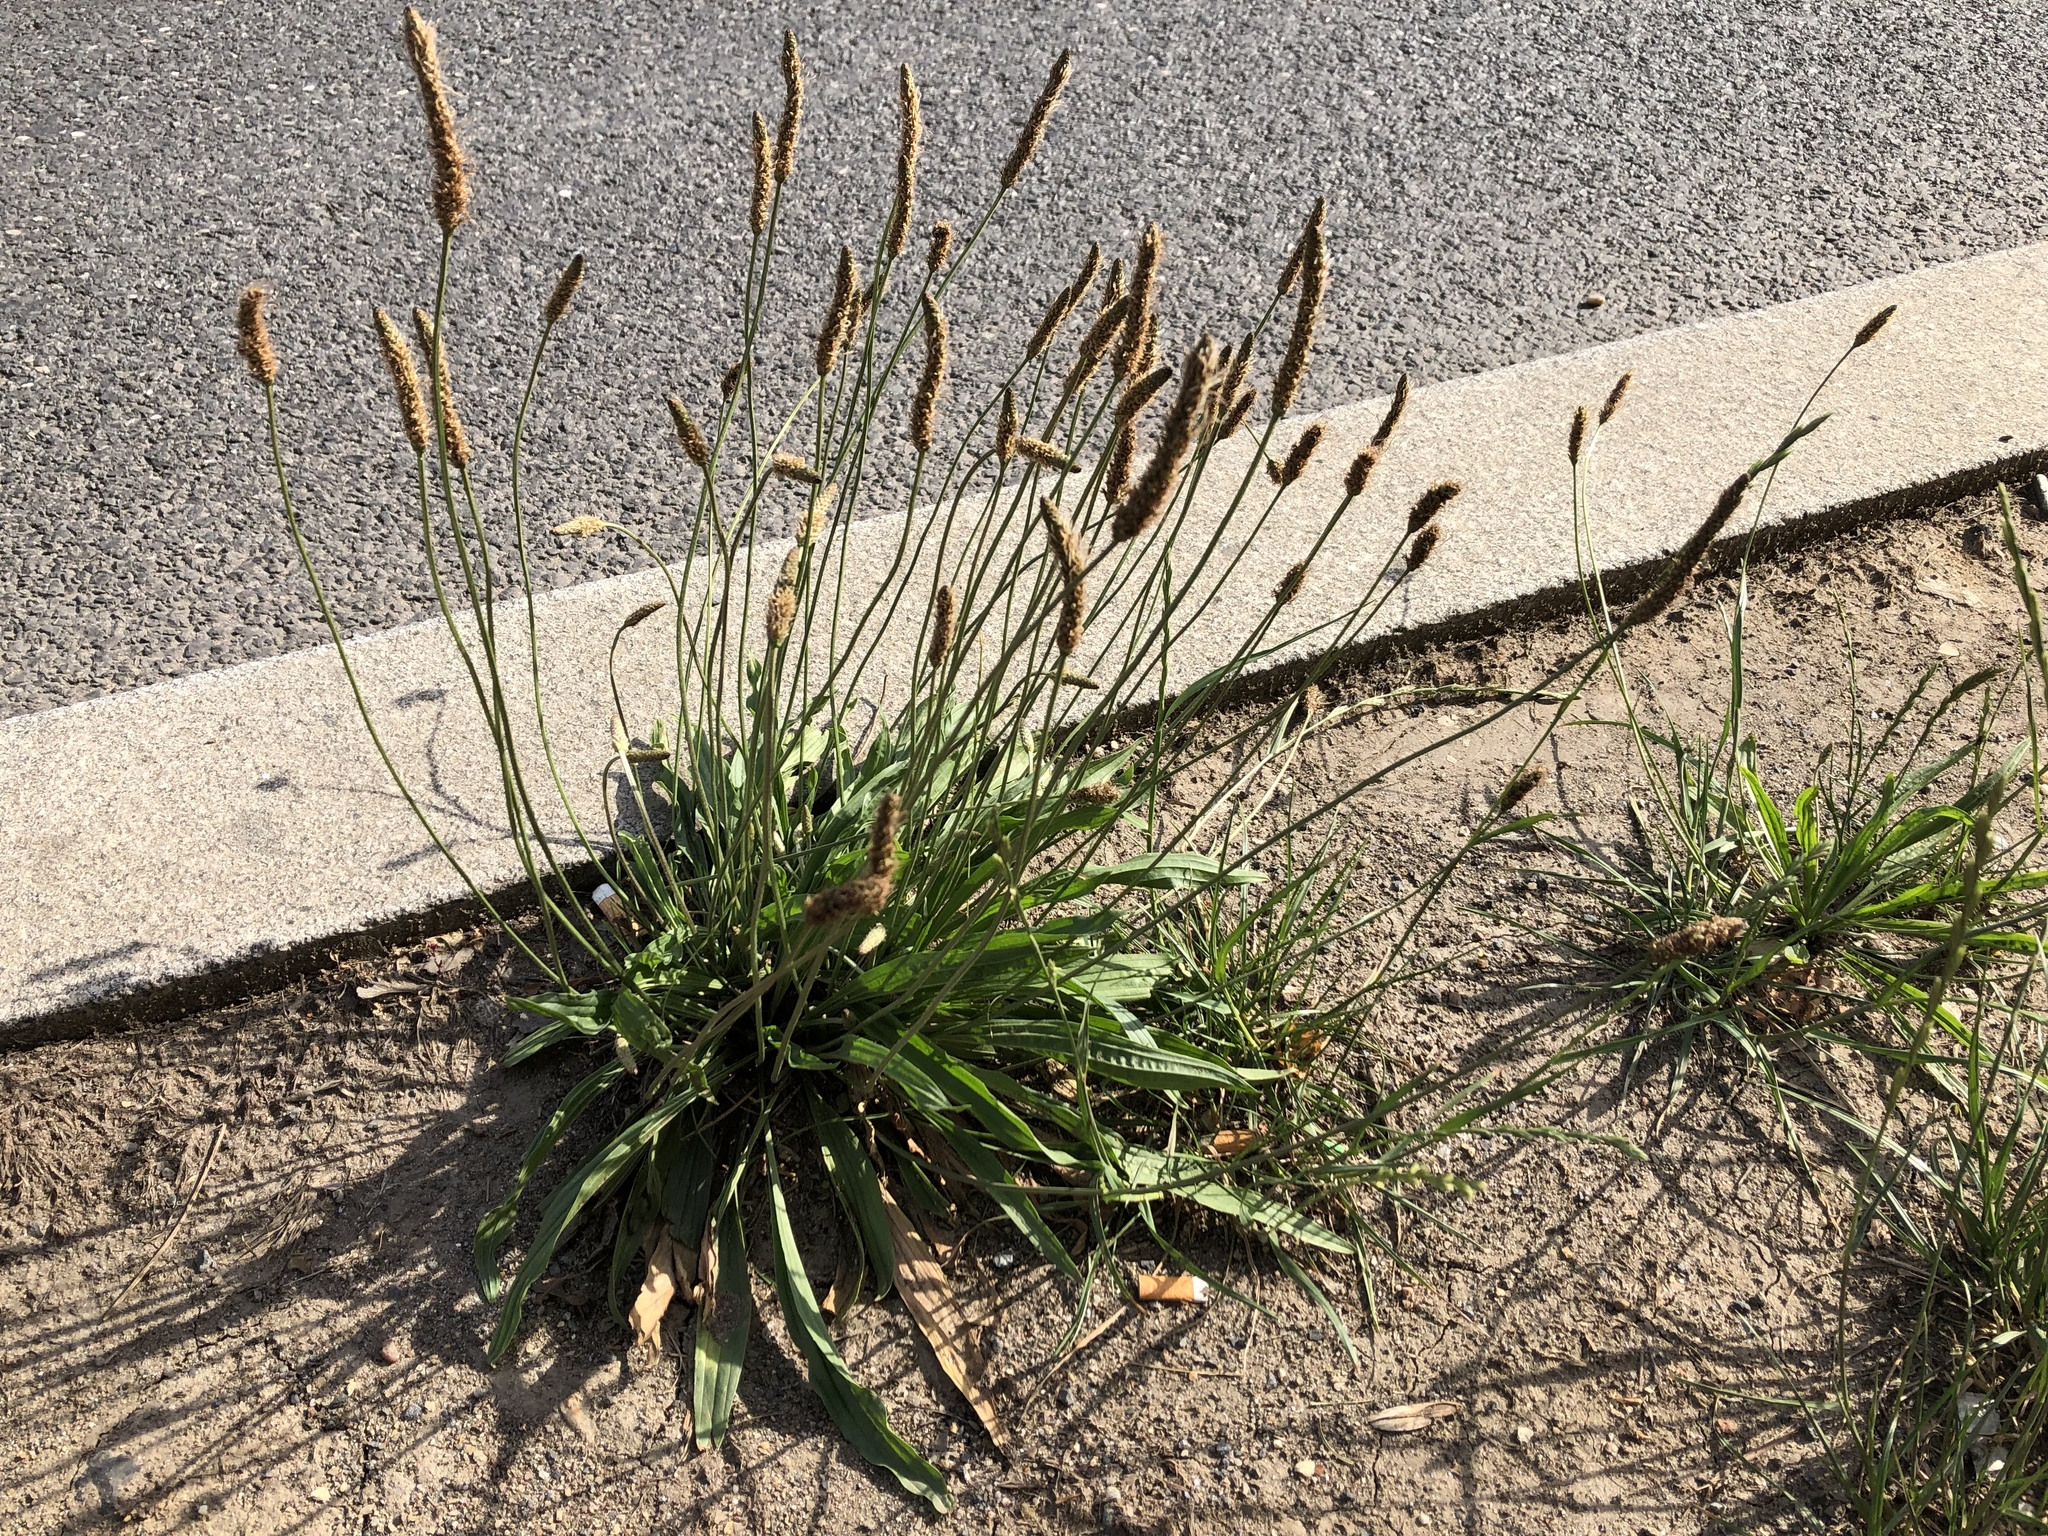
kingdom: Plantae
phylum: Tracheophyta
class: Magnoliopsida
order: Lamiales
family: Plantaginaceae
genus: Plantago
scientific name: Plantago lanceolata
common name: Ribwort plantain
